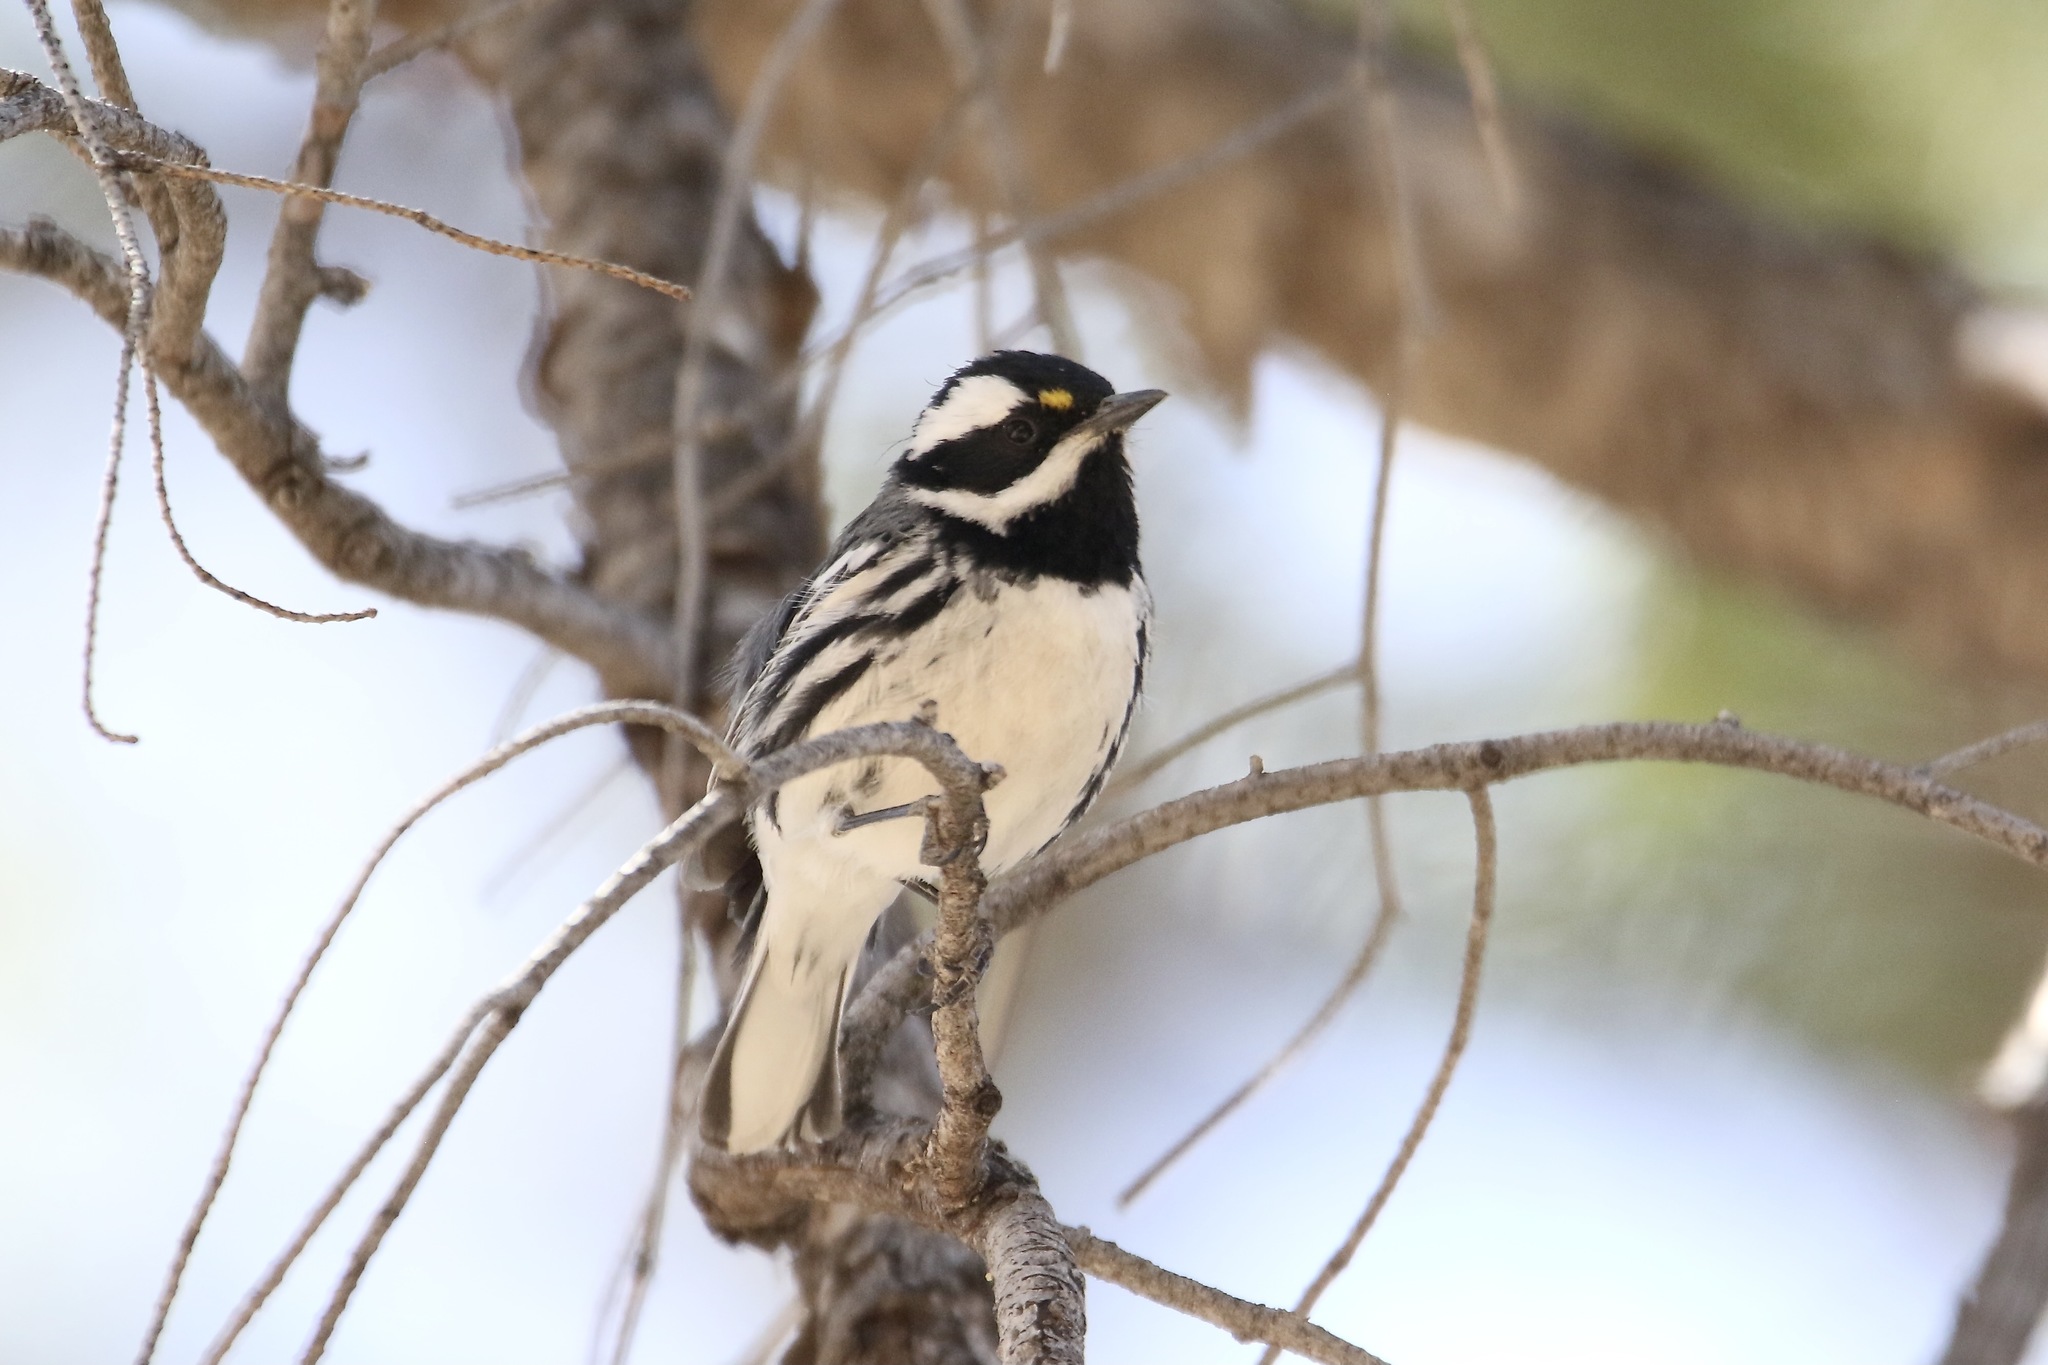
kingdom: Animalia
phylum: Chordata
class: Aves
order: Passeriformes
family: Parulidae
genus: Setophaga
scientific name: Setophaga nigrescens
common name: Black-throated gray warbler
